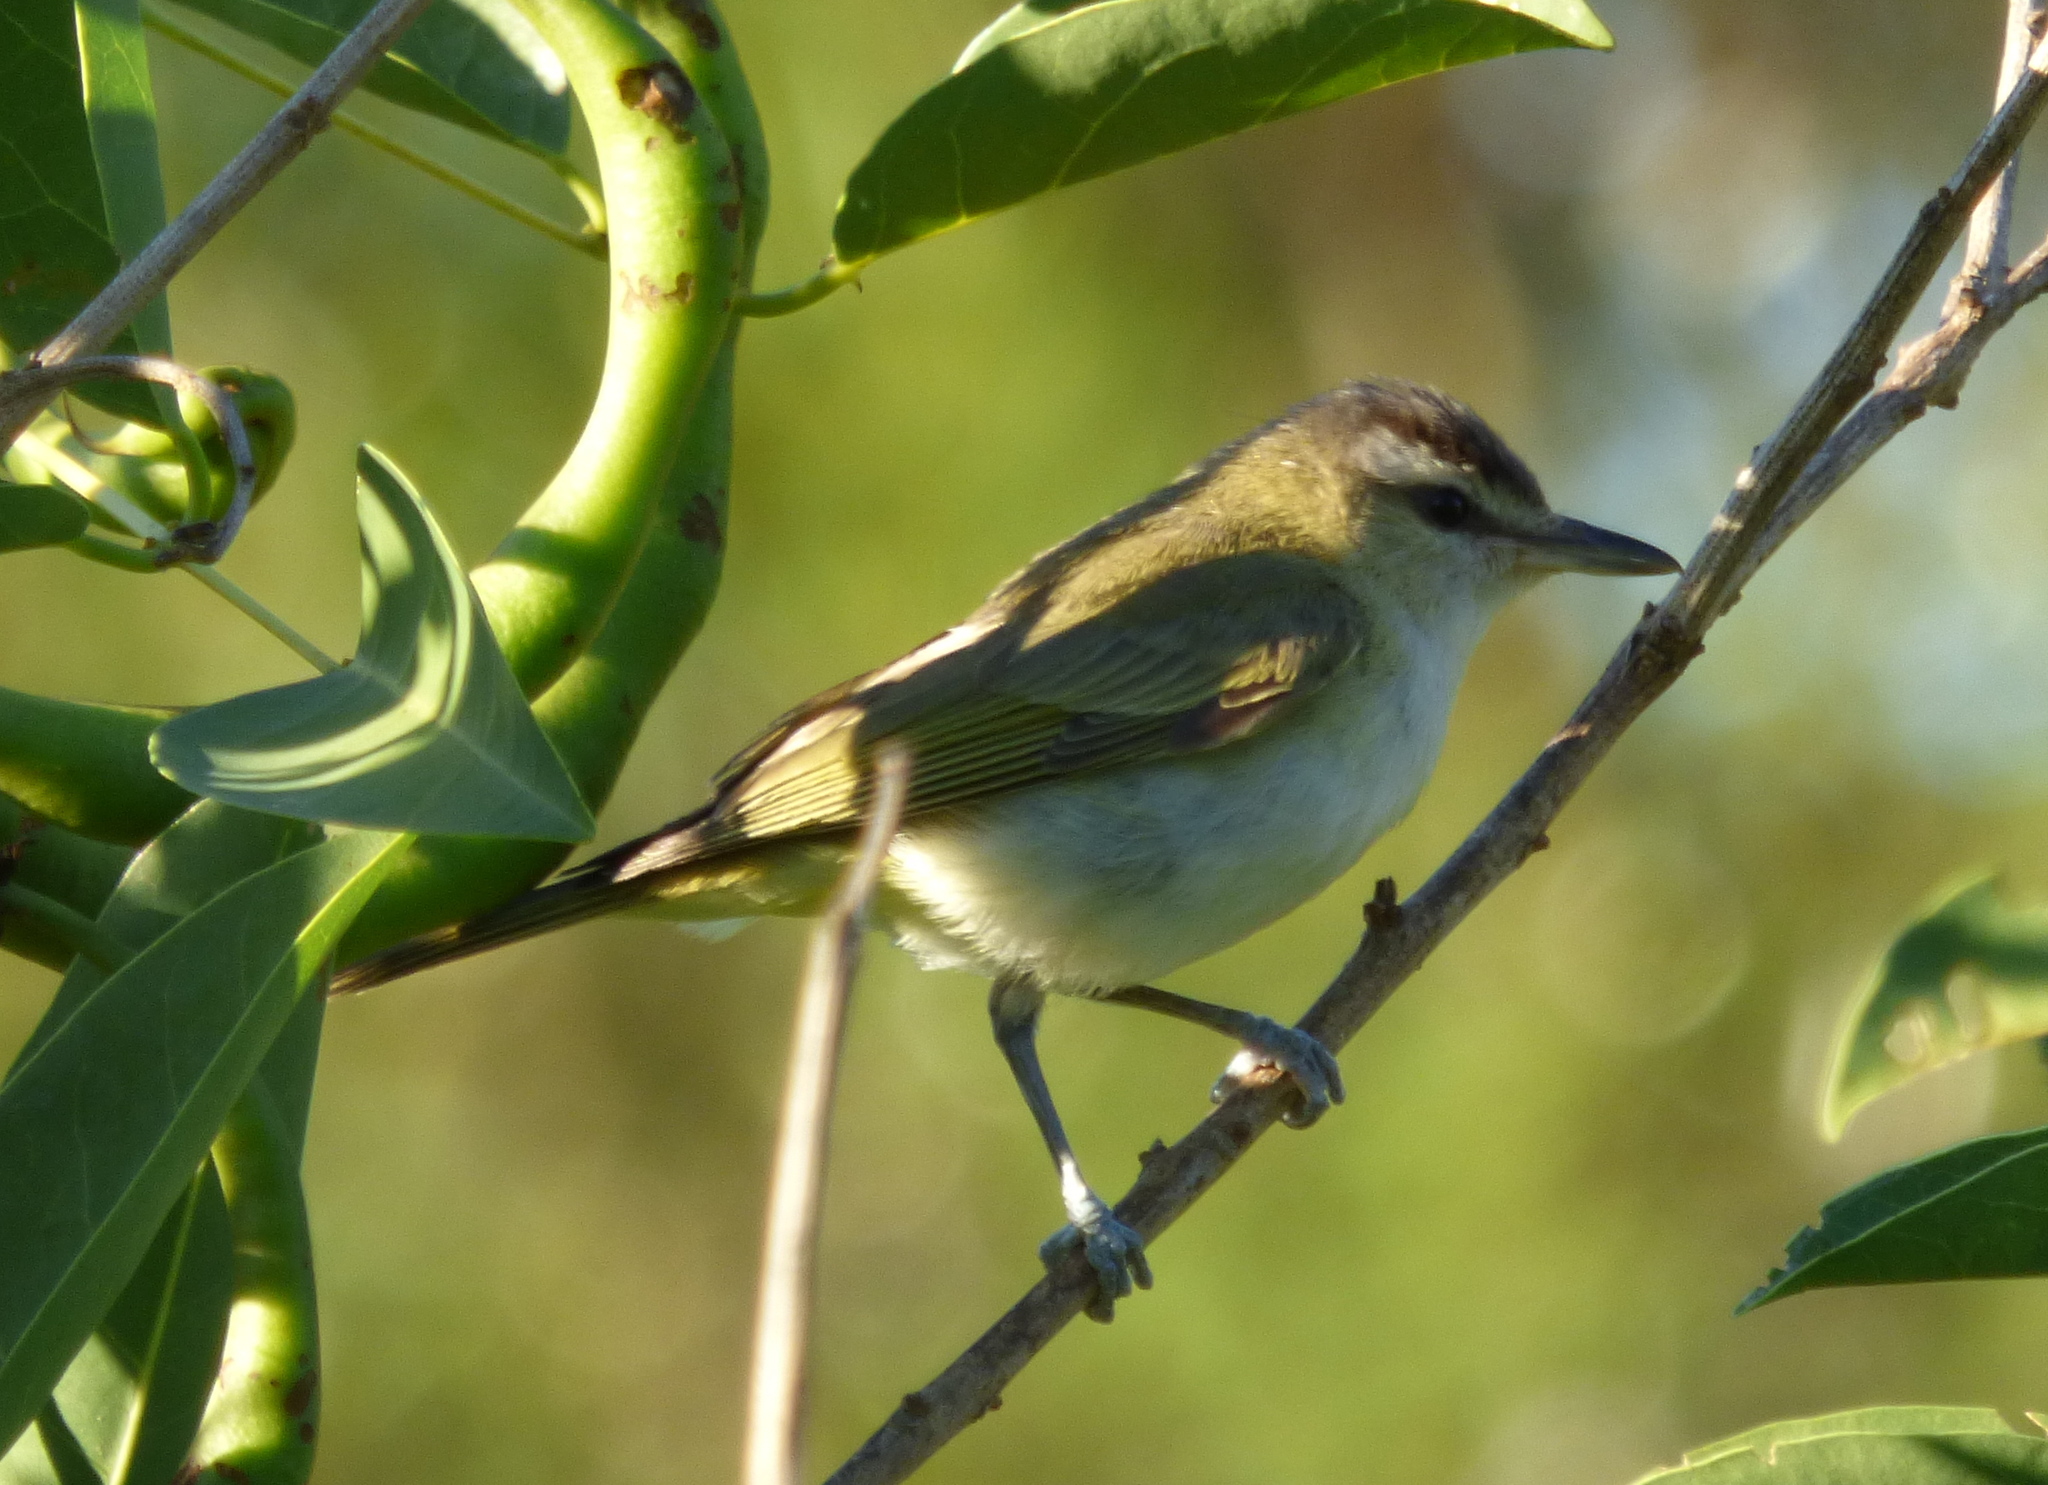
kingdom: Animalia
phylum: Chordata
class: Aves
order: Passeriformes
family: Vireonidae
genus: Vireo
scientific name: Vireo olivaceus
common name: Red-eyed vireo
